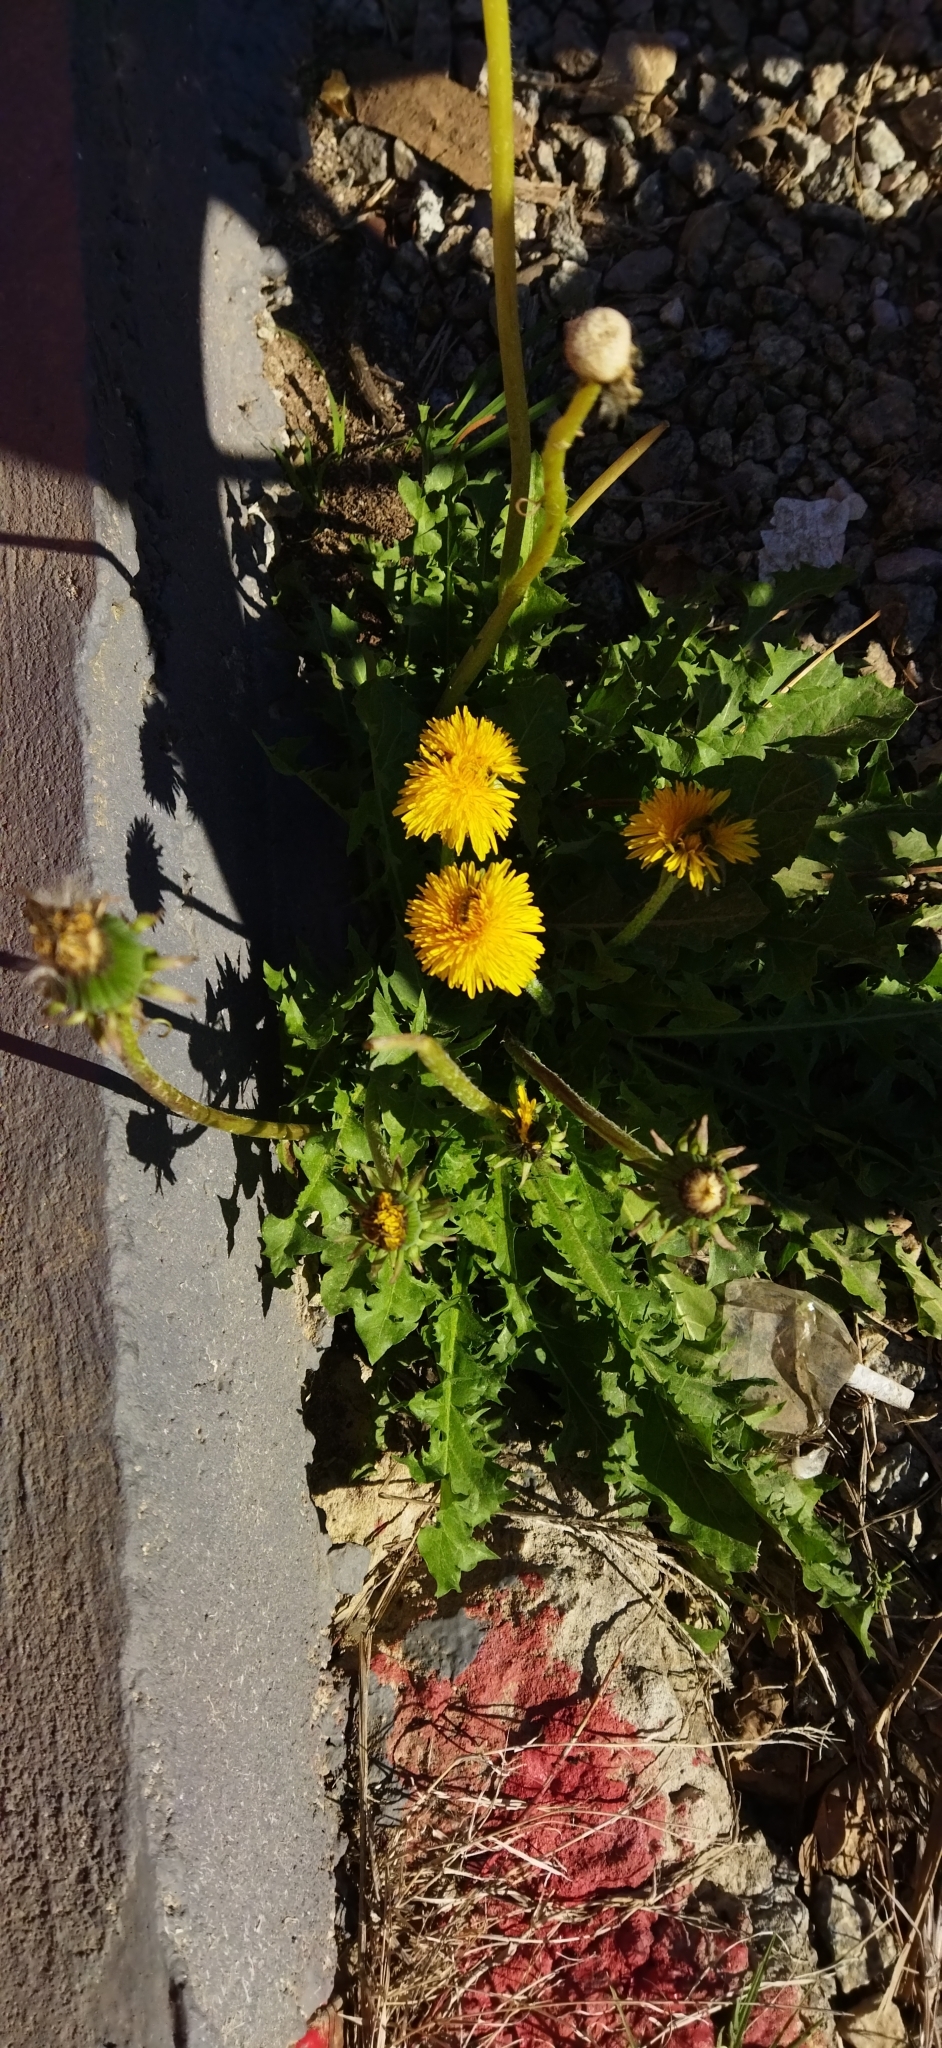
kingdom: Plantae
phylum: Tracheophyta
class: Magnoliopsida
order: Asterales
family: Asteraceae
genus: Taraxacum
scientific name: Taraxacum officinale
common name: Common dandelion
